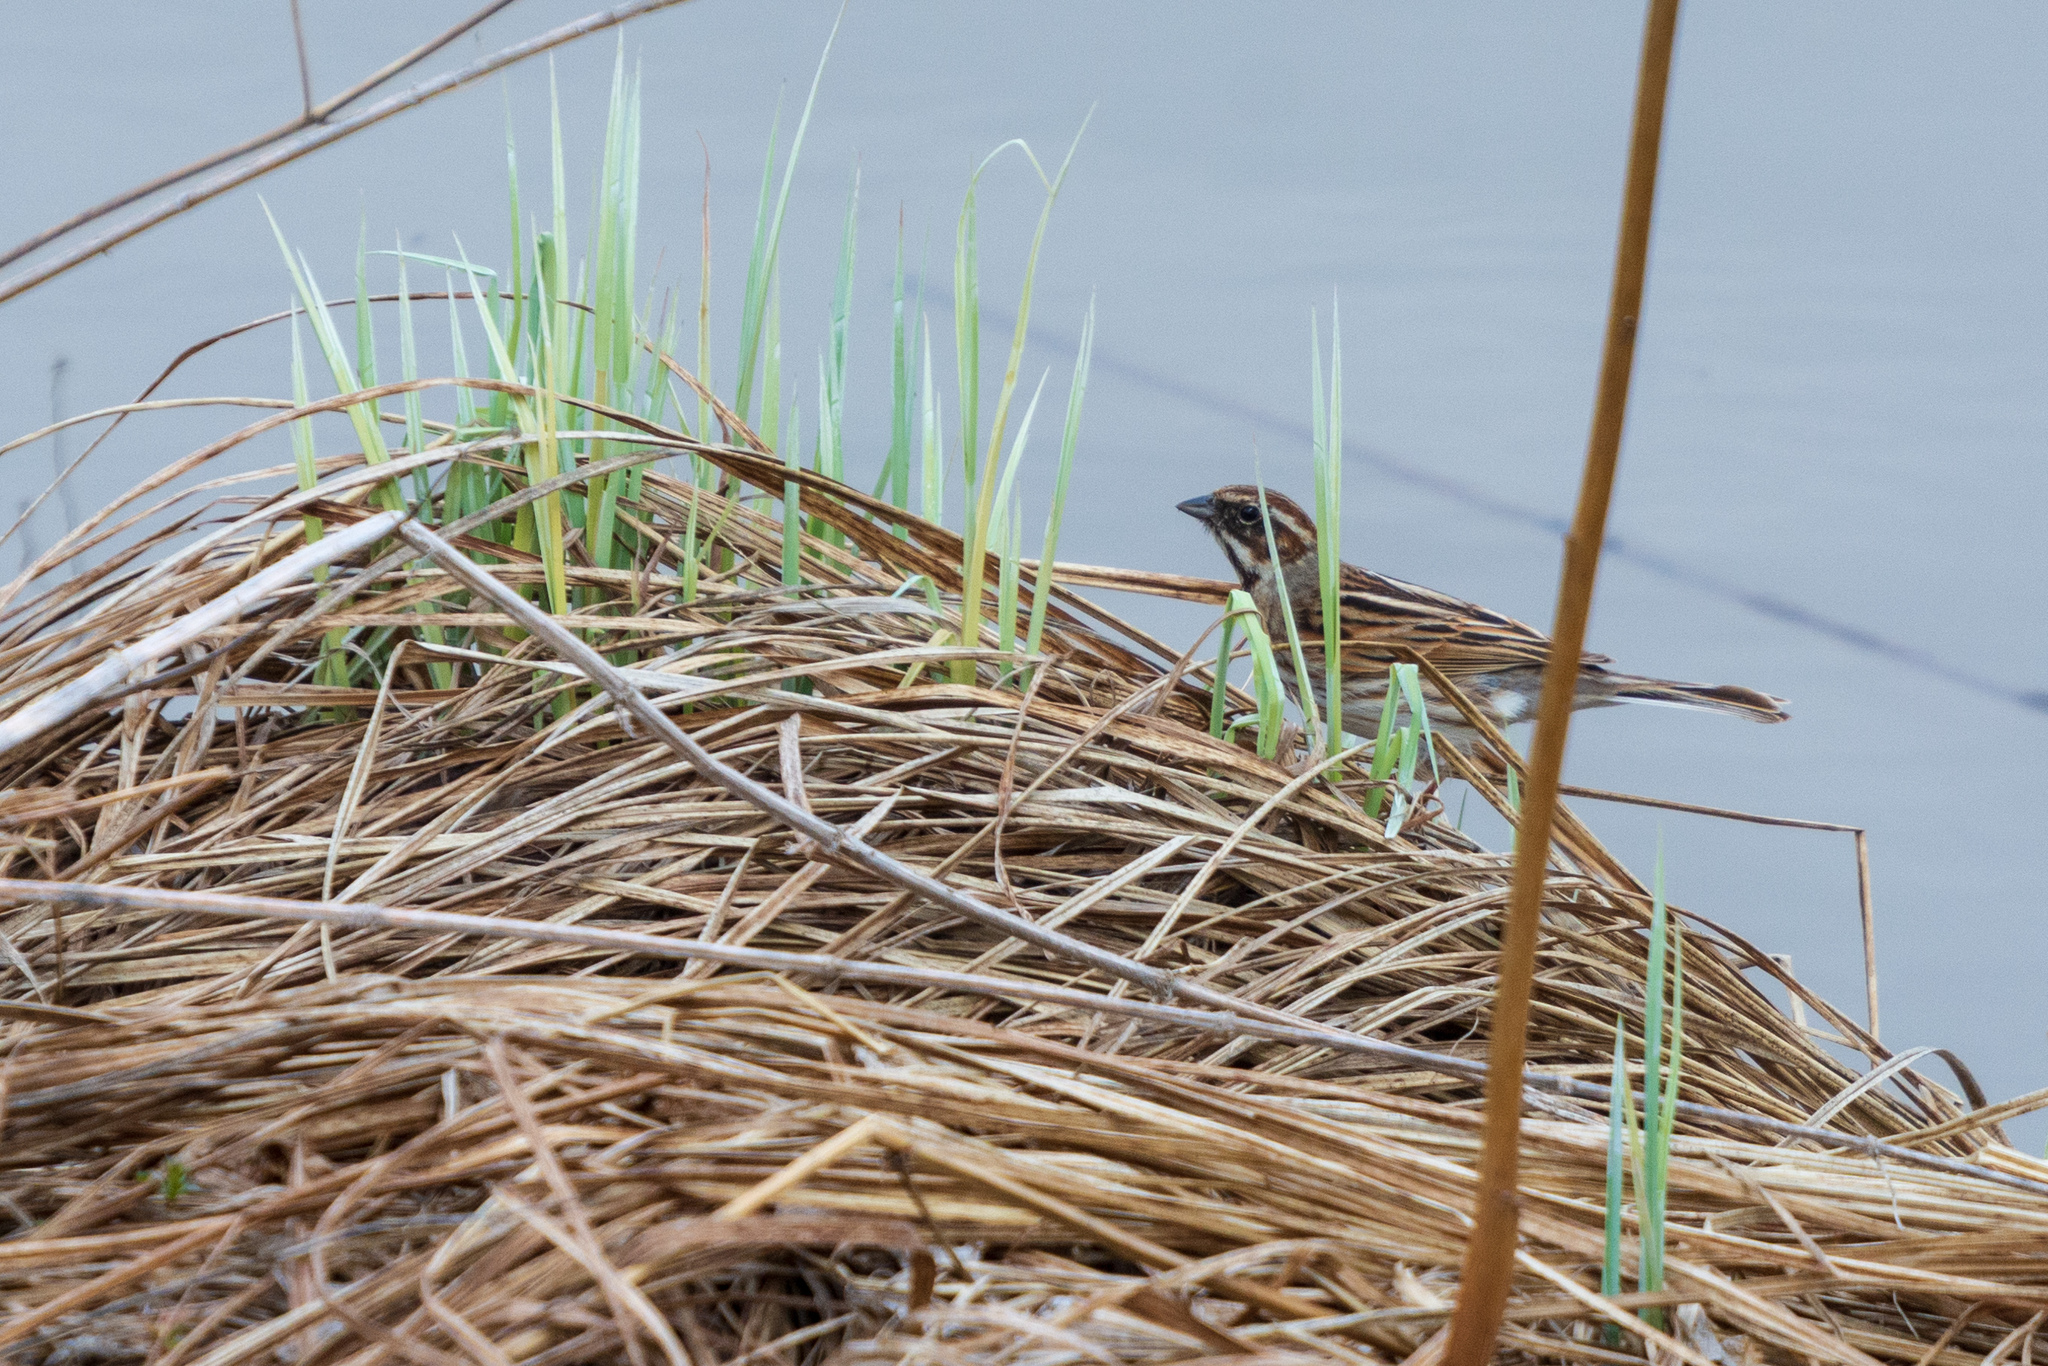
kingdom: Animalia
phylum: Chordata
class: Aves
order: Passeriformes
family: Emberizidae
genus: Emberiza
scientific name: Emberiza schoeniclus
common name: Reed bunting
